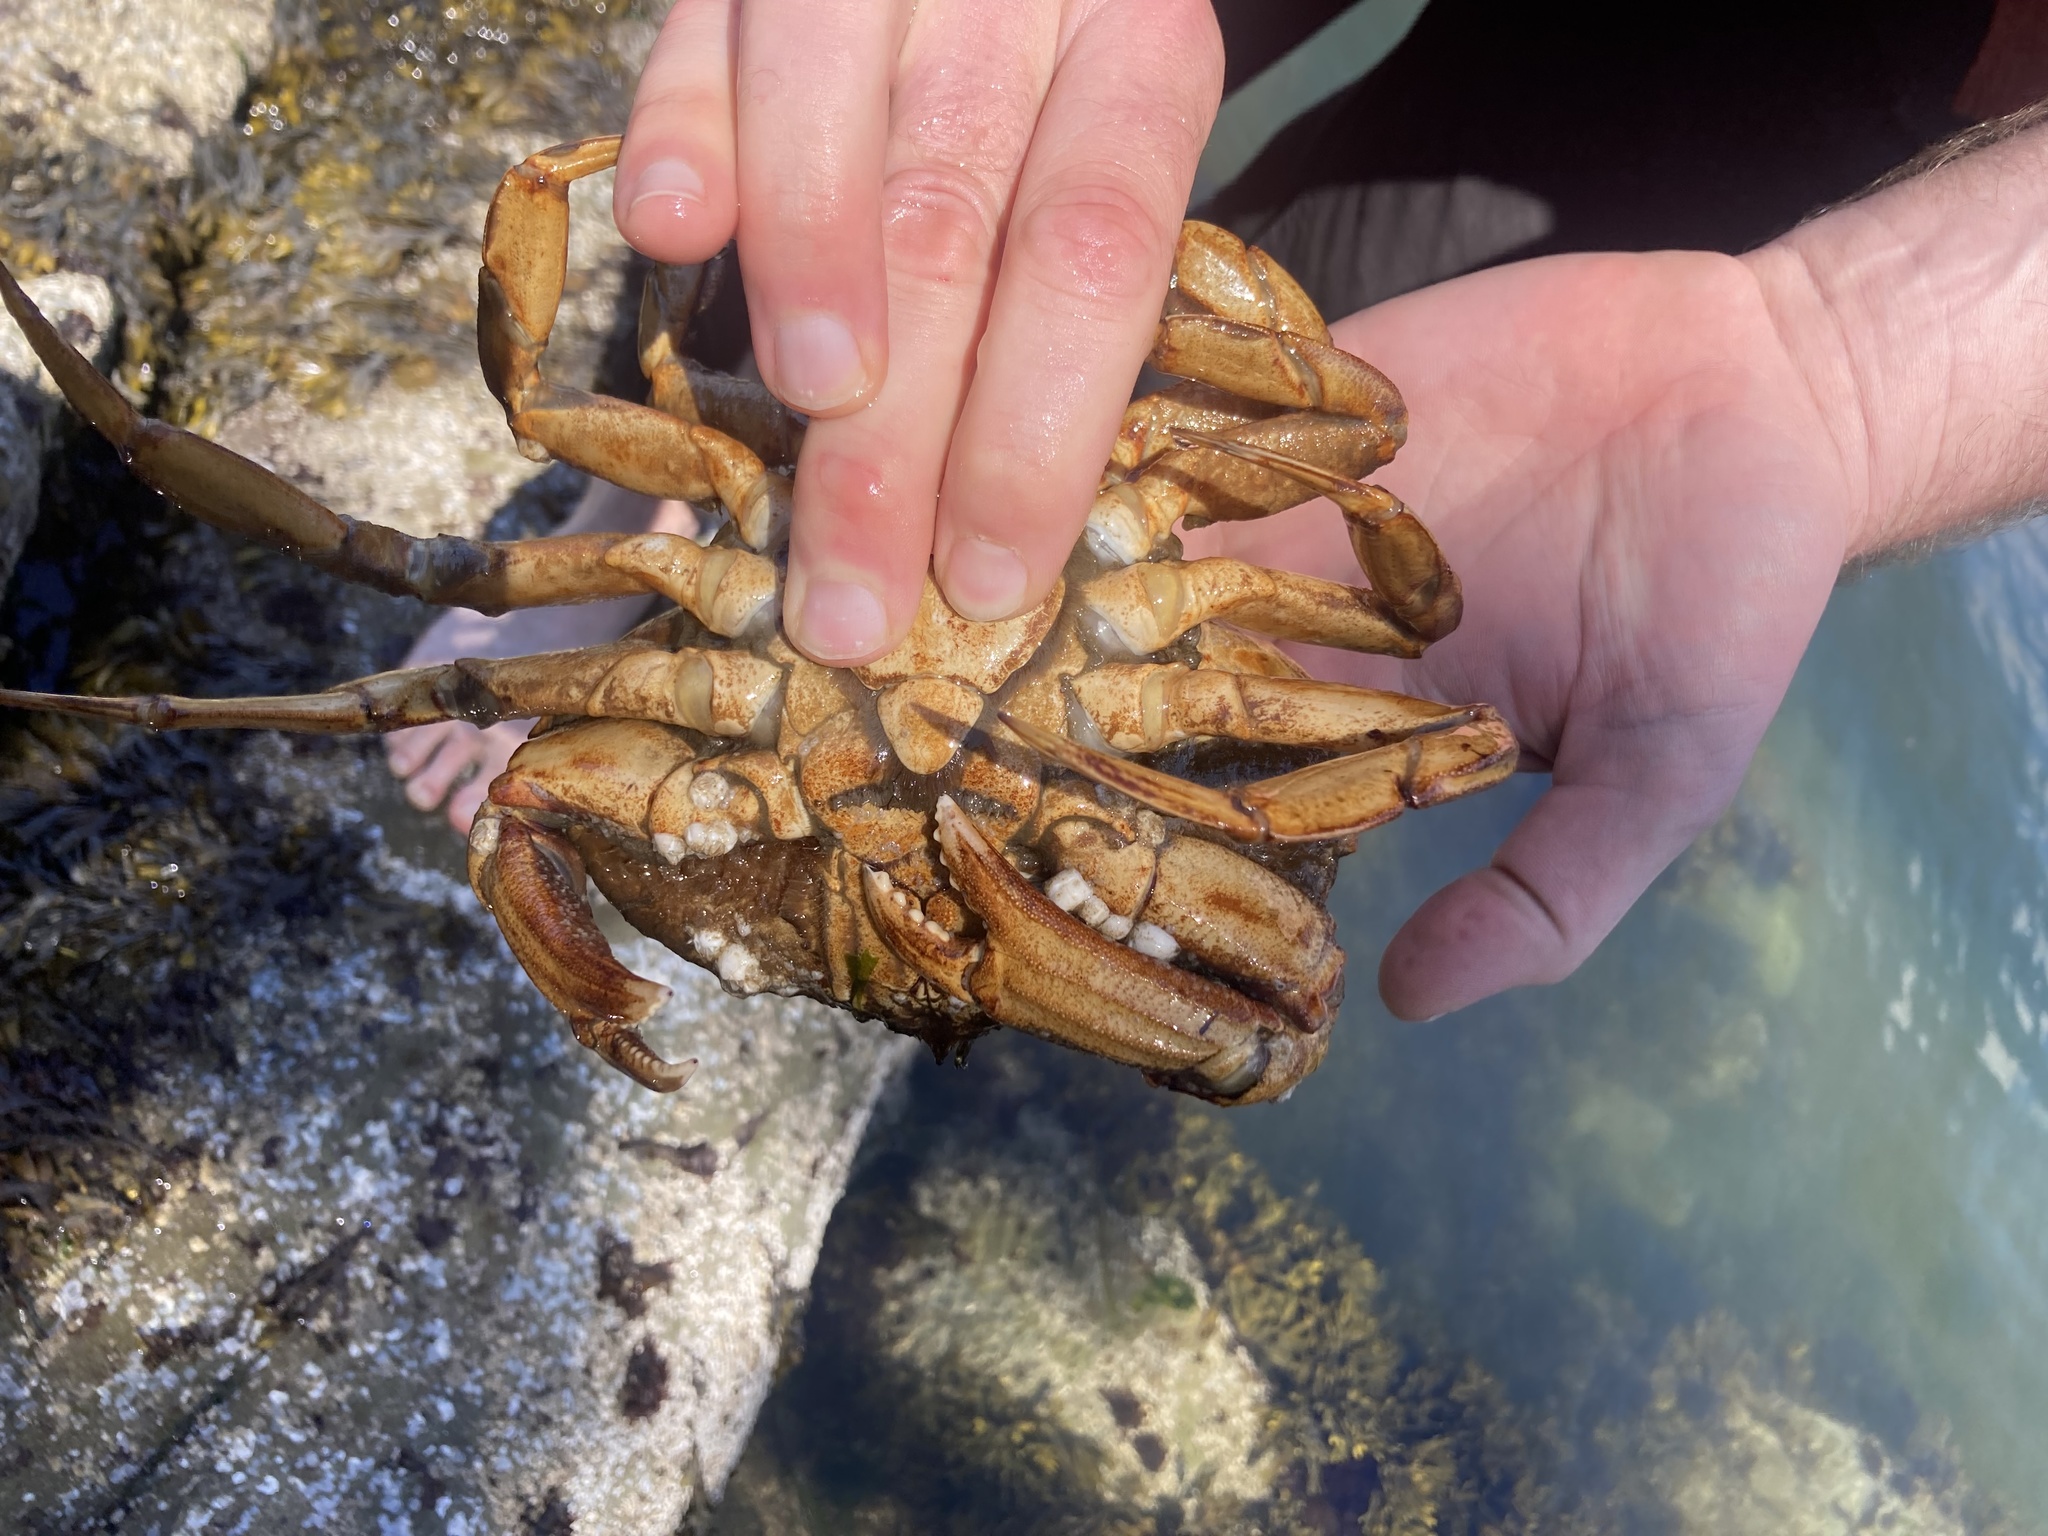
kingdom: Animalia
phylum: Arthropoda
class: Malacostraca
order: Decapoda
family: Cancridae
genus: Metacarcinus
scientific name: Metacarcinus magister
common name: Californian crab
